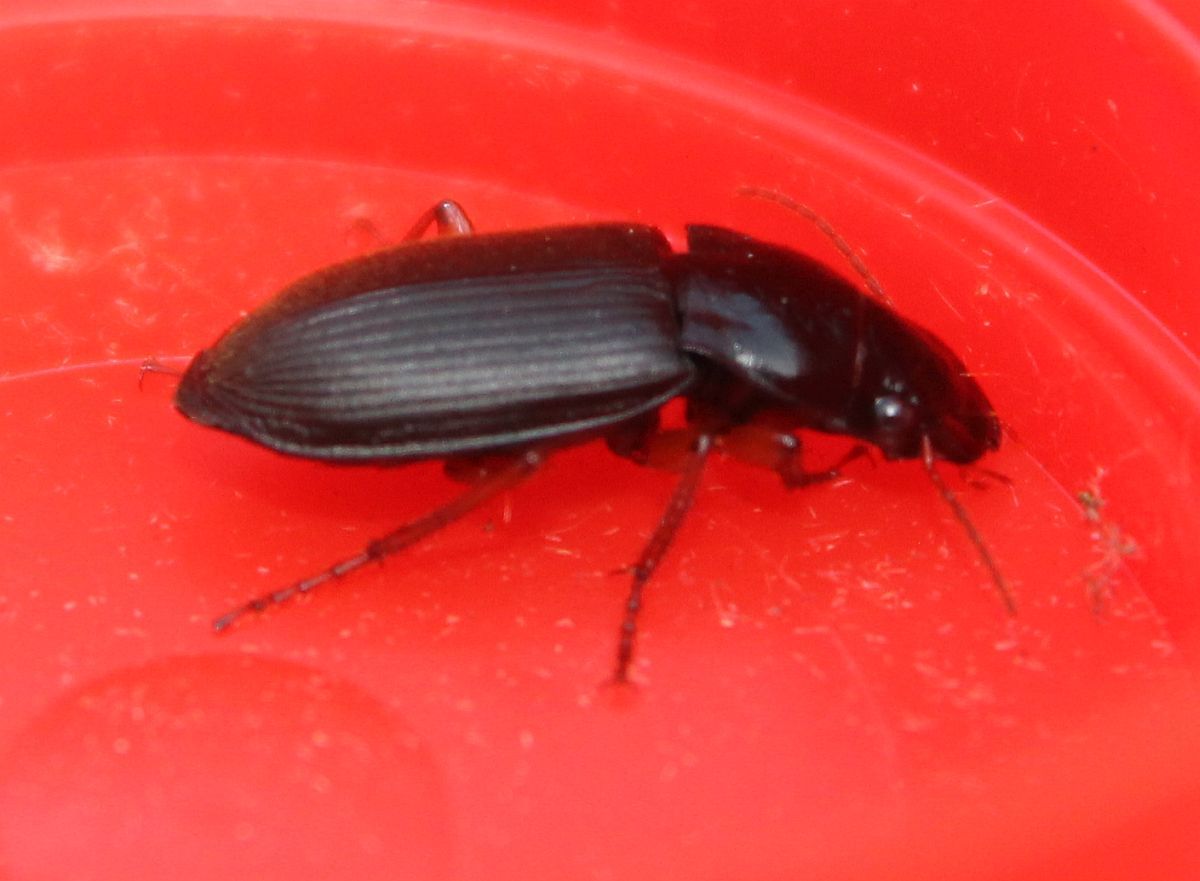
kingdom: Animalia
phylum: Arthropoda
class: Insecta
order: Coleoptera
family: Carabidae
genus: Harpalus
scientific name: Harpalus rufipes
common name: Strawberry harp ground beetle
